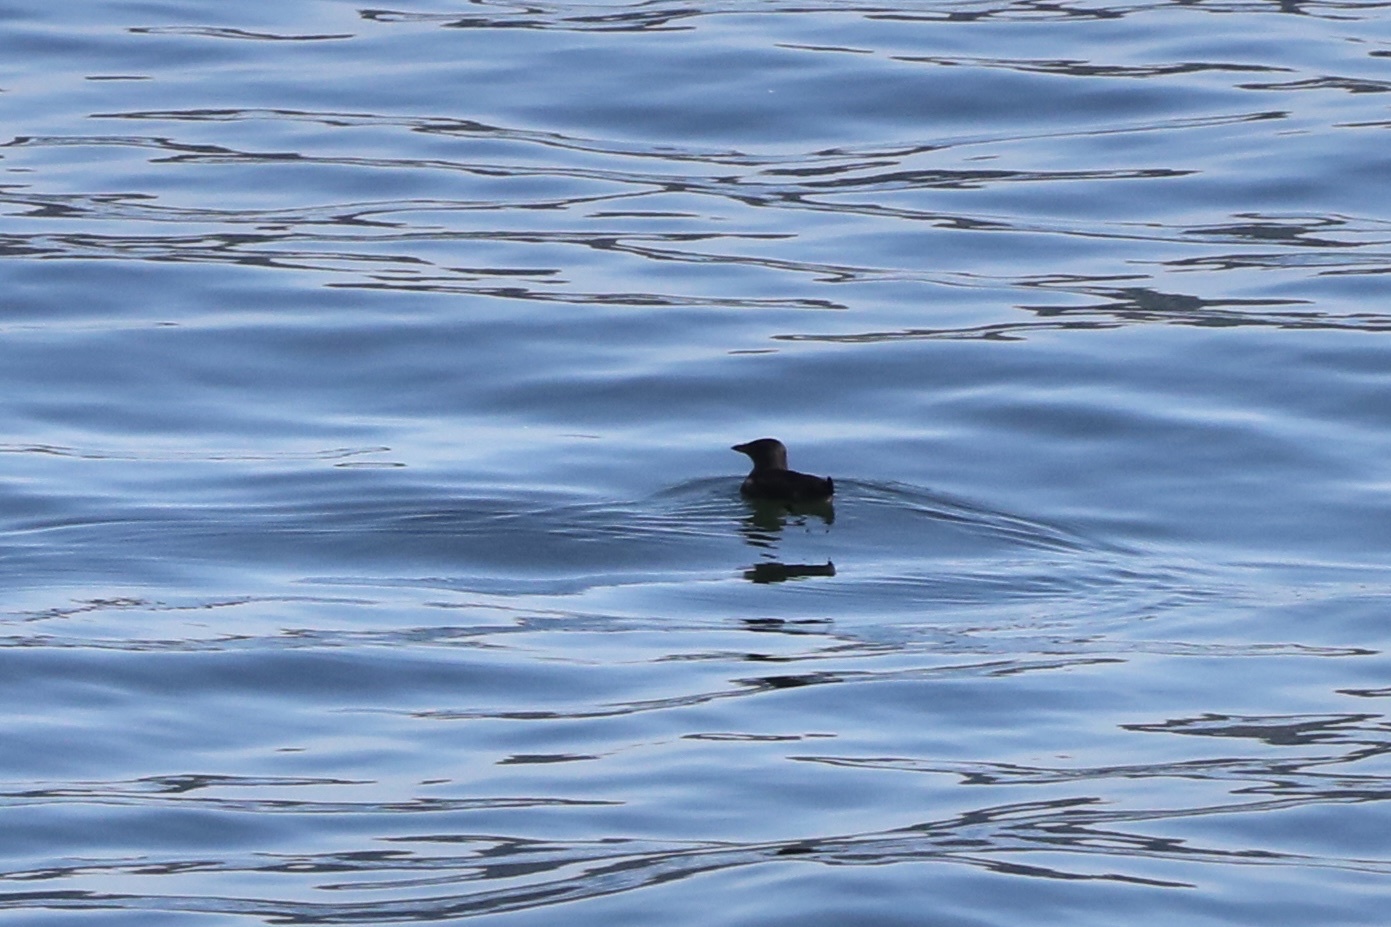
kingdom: Animalia
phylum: Chordata
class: Aves
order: Charadriiformes
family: Alcidae
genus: Cerorhinca
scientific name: Cerorhinca monocerata
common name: Rhinoceros auklet
